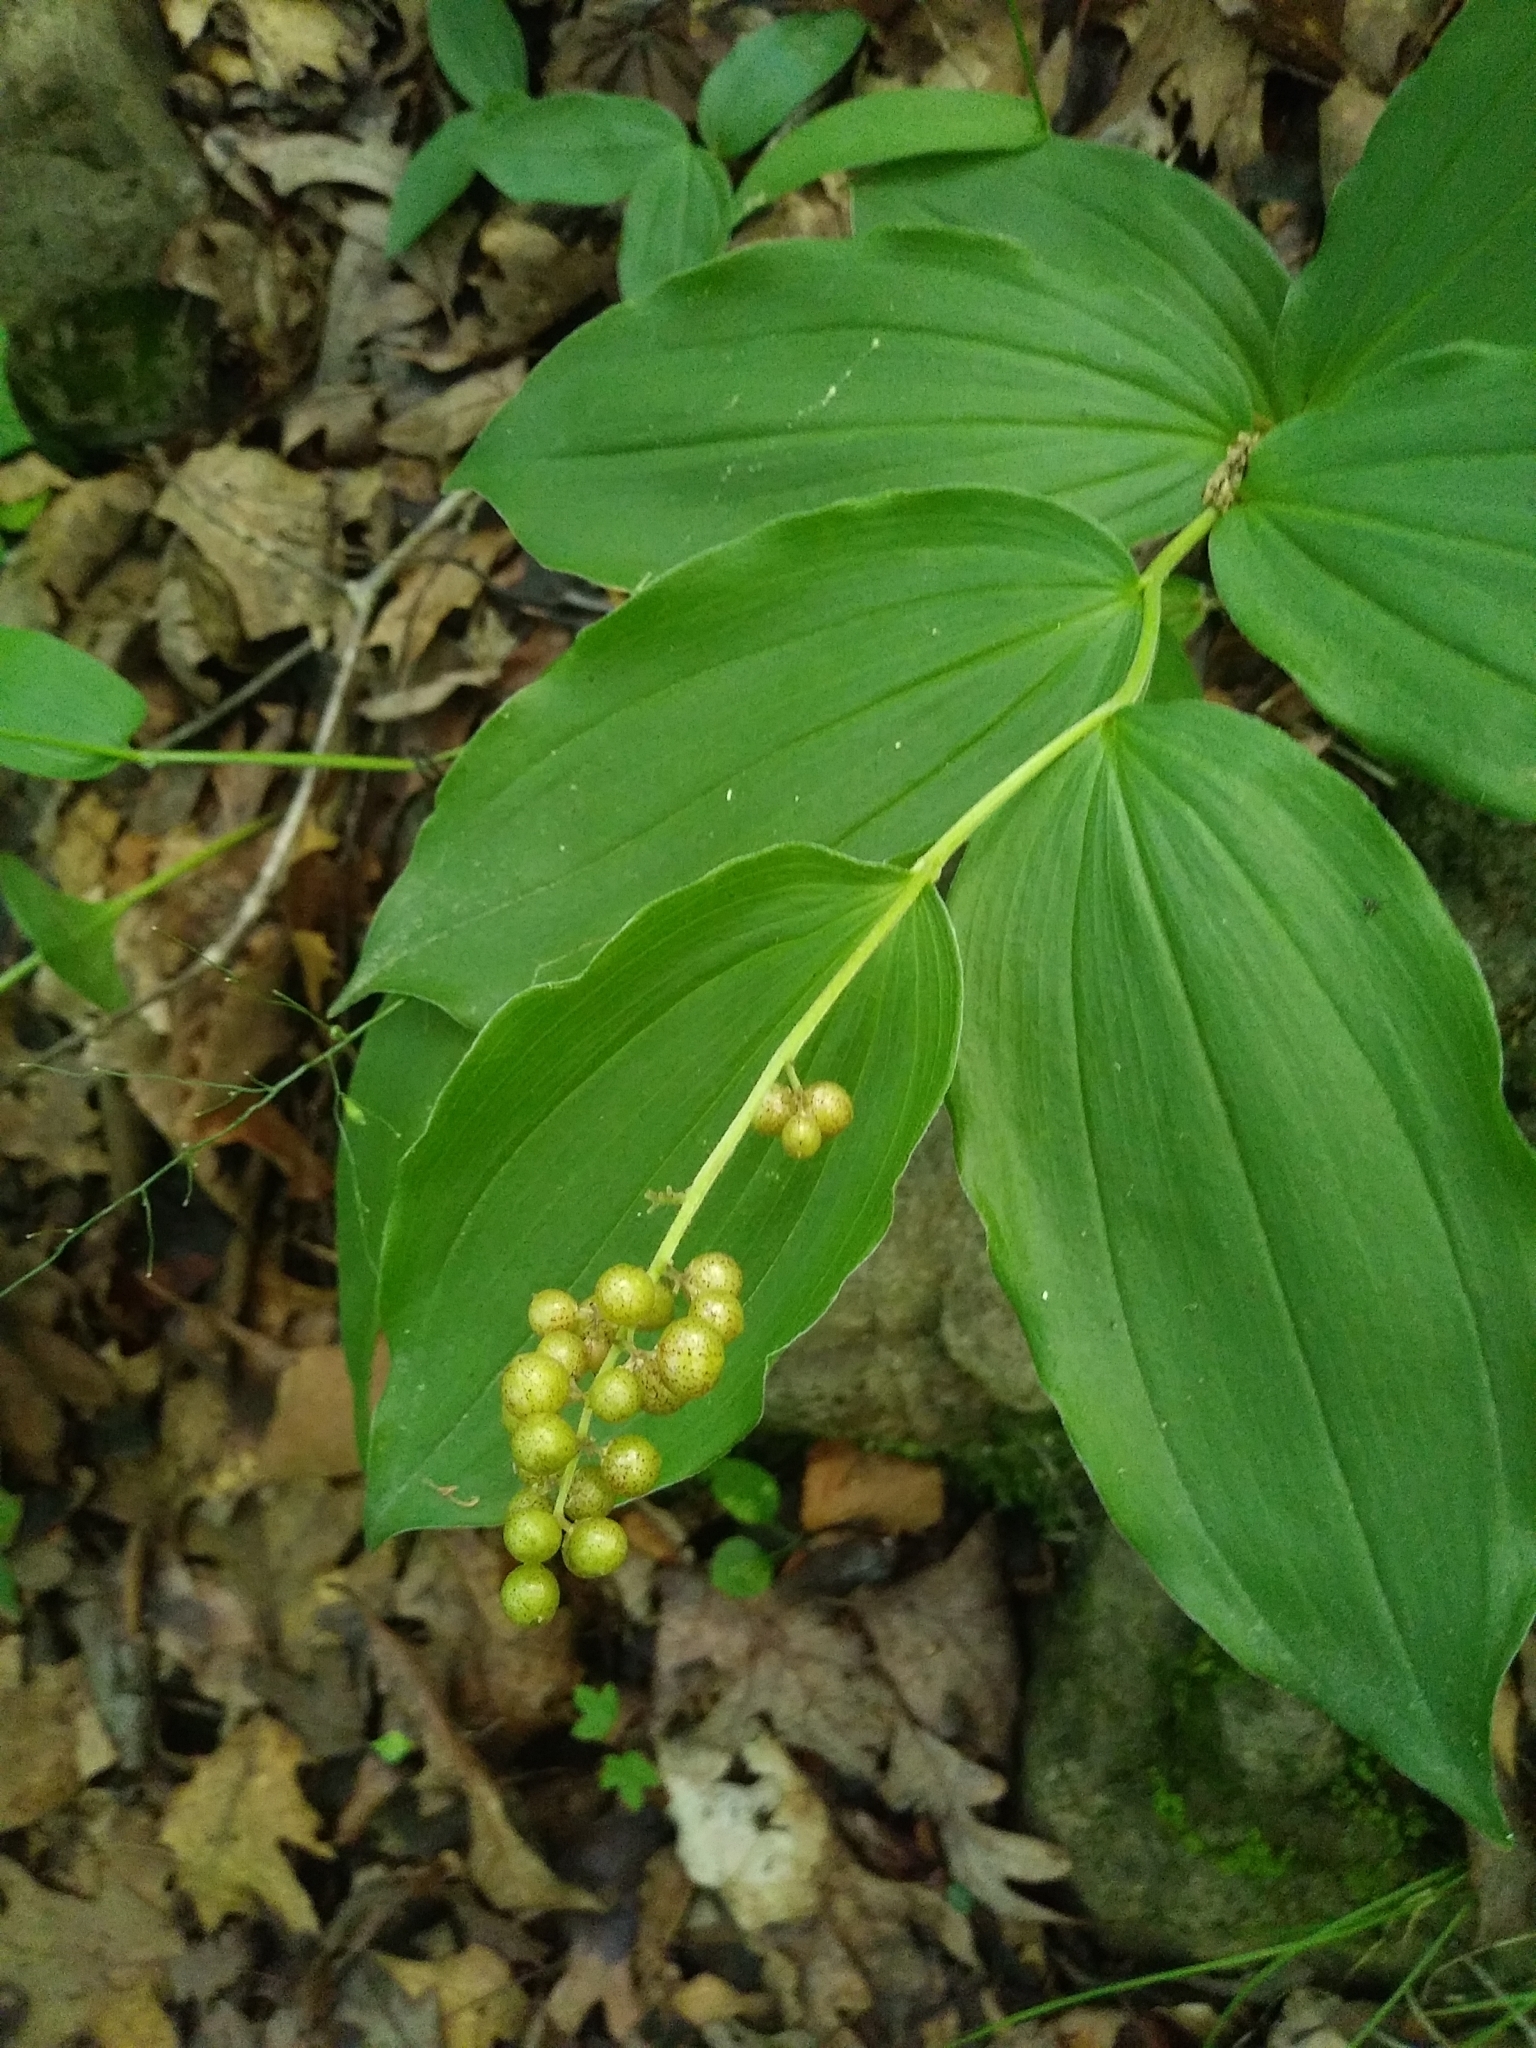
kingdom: Plantae
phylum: Tracheophyta
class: Liliopsida
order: Asparagales
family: Asparagaceae
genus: Maianthemum
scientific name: Maianthemum racemosum
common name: False spikenard
